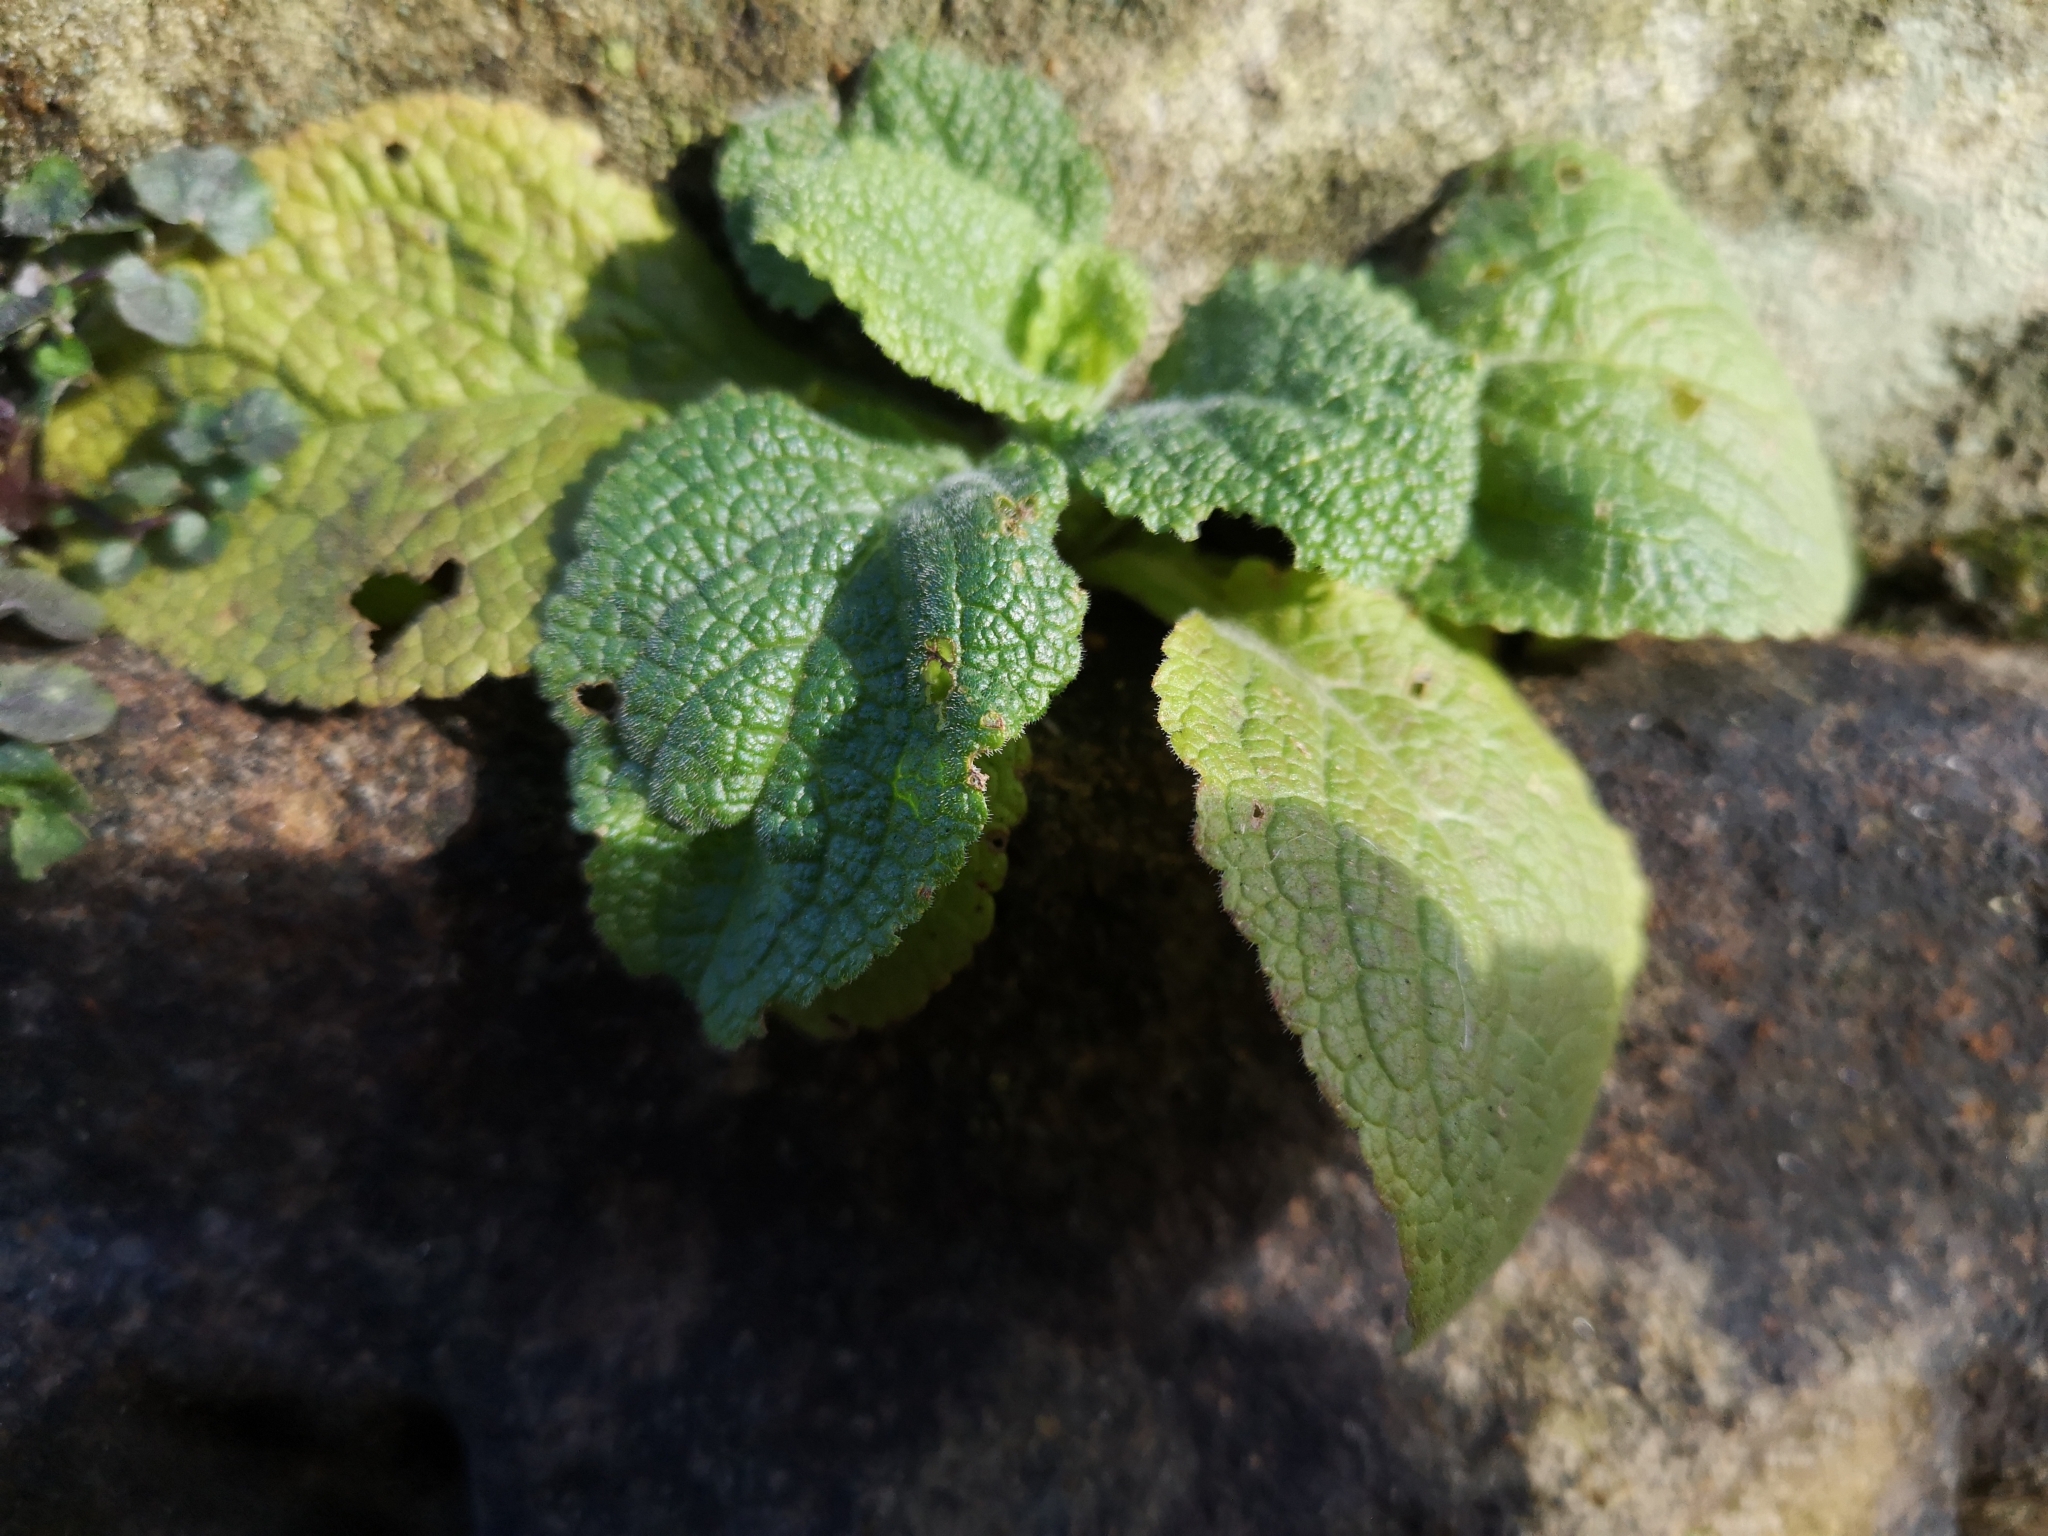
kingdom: Plantae
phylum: Tracheophyta
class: Magnoliopsida
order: Lamiales
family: Plantaginaceae
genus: Digitalis
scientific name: Digitalis purpurea
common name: Foxglove
